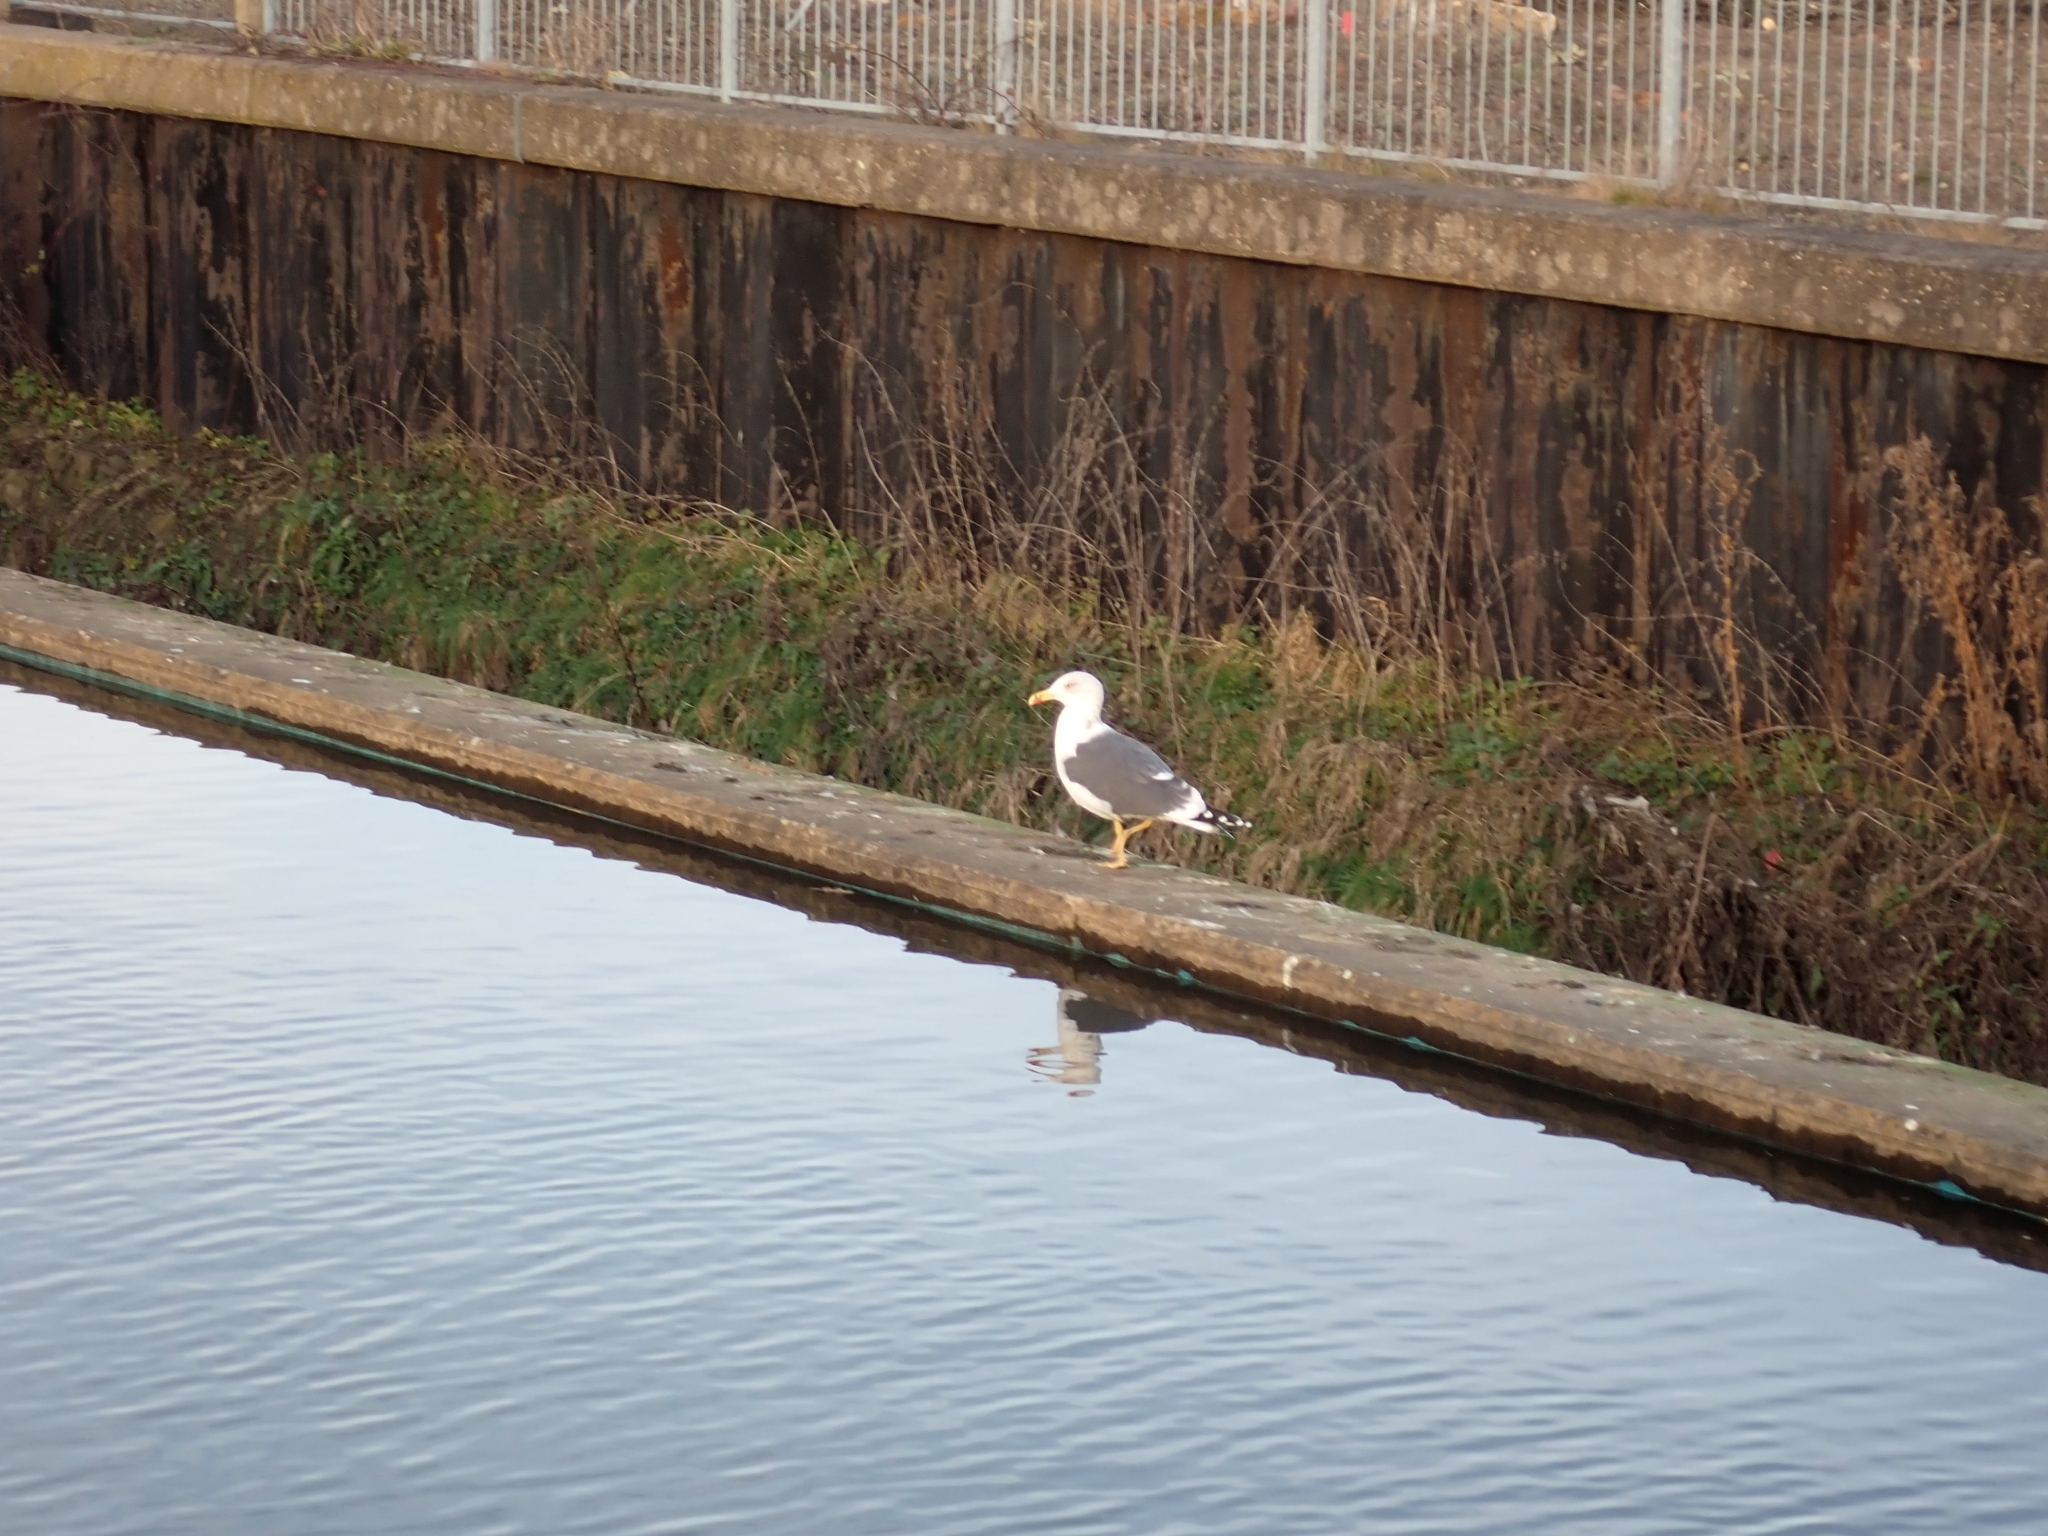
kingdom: Animalia
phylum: Chordata
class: Aves
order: Charadriiformes
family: Laridae
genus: Larus
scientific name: Larus fuscus
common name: Lesser black-backed gull
